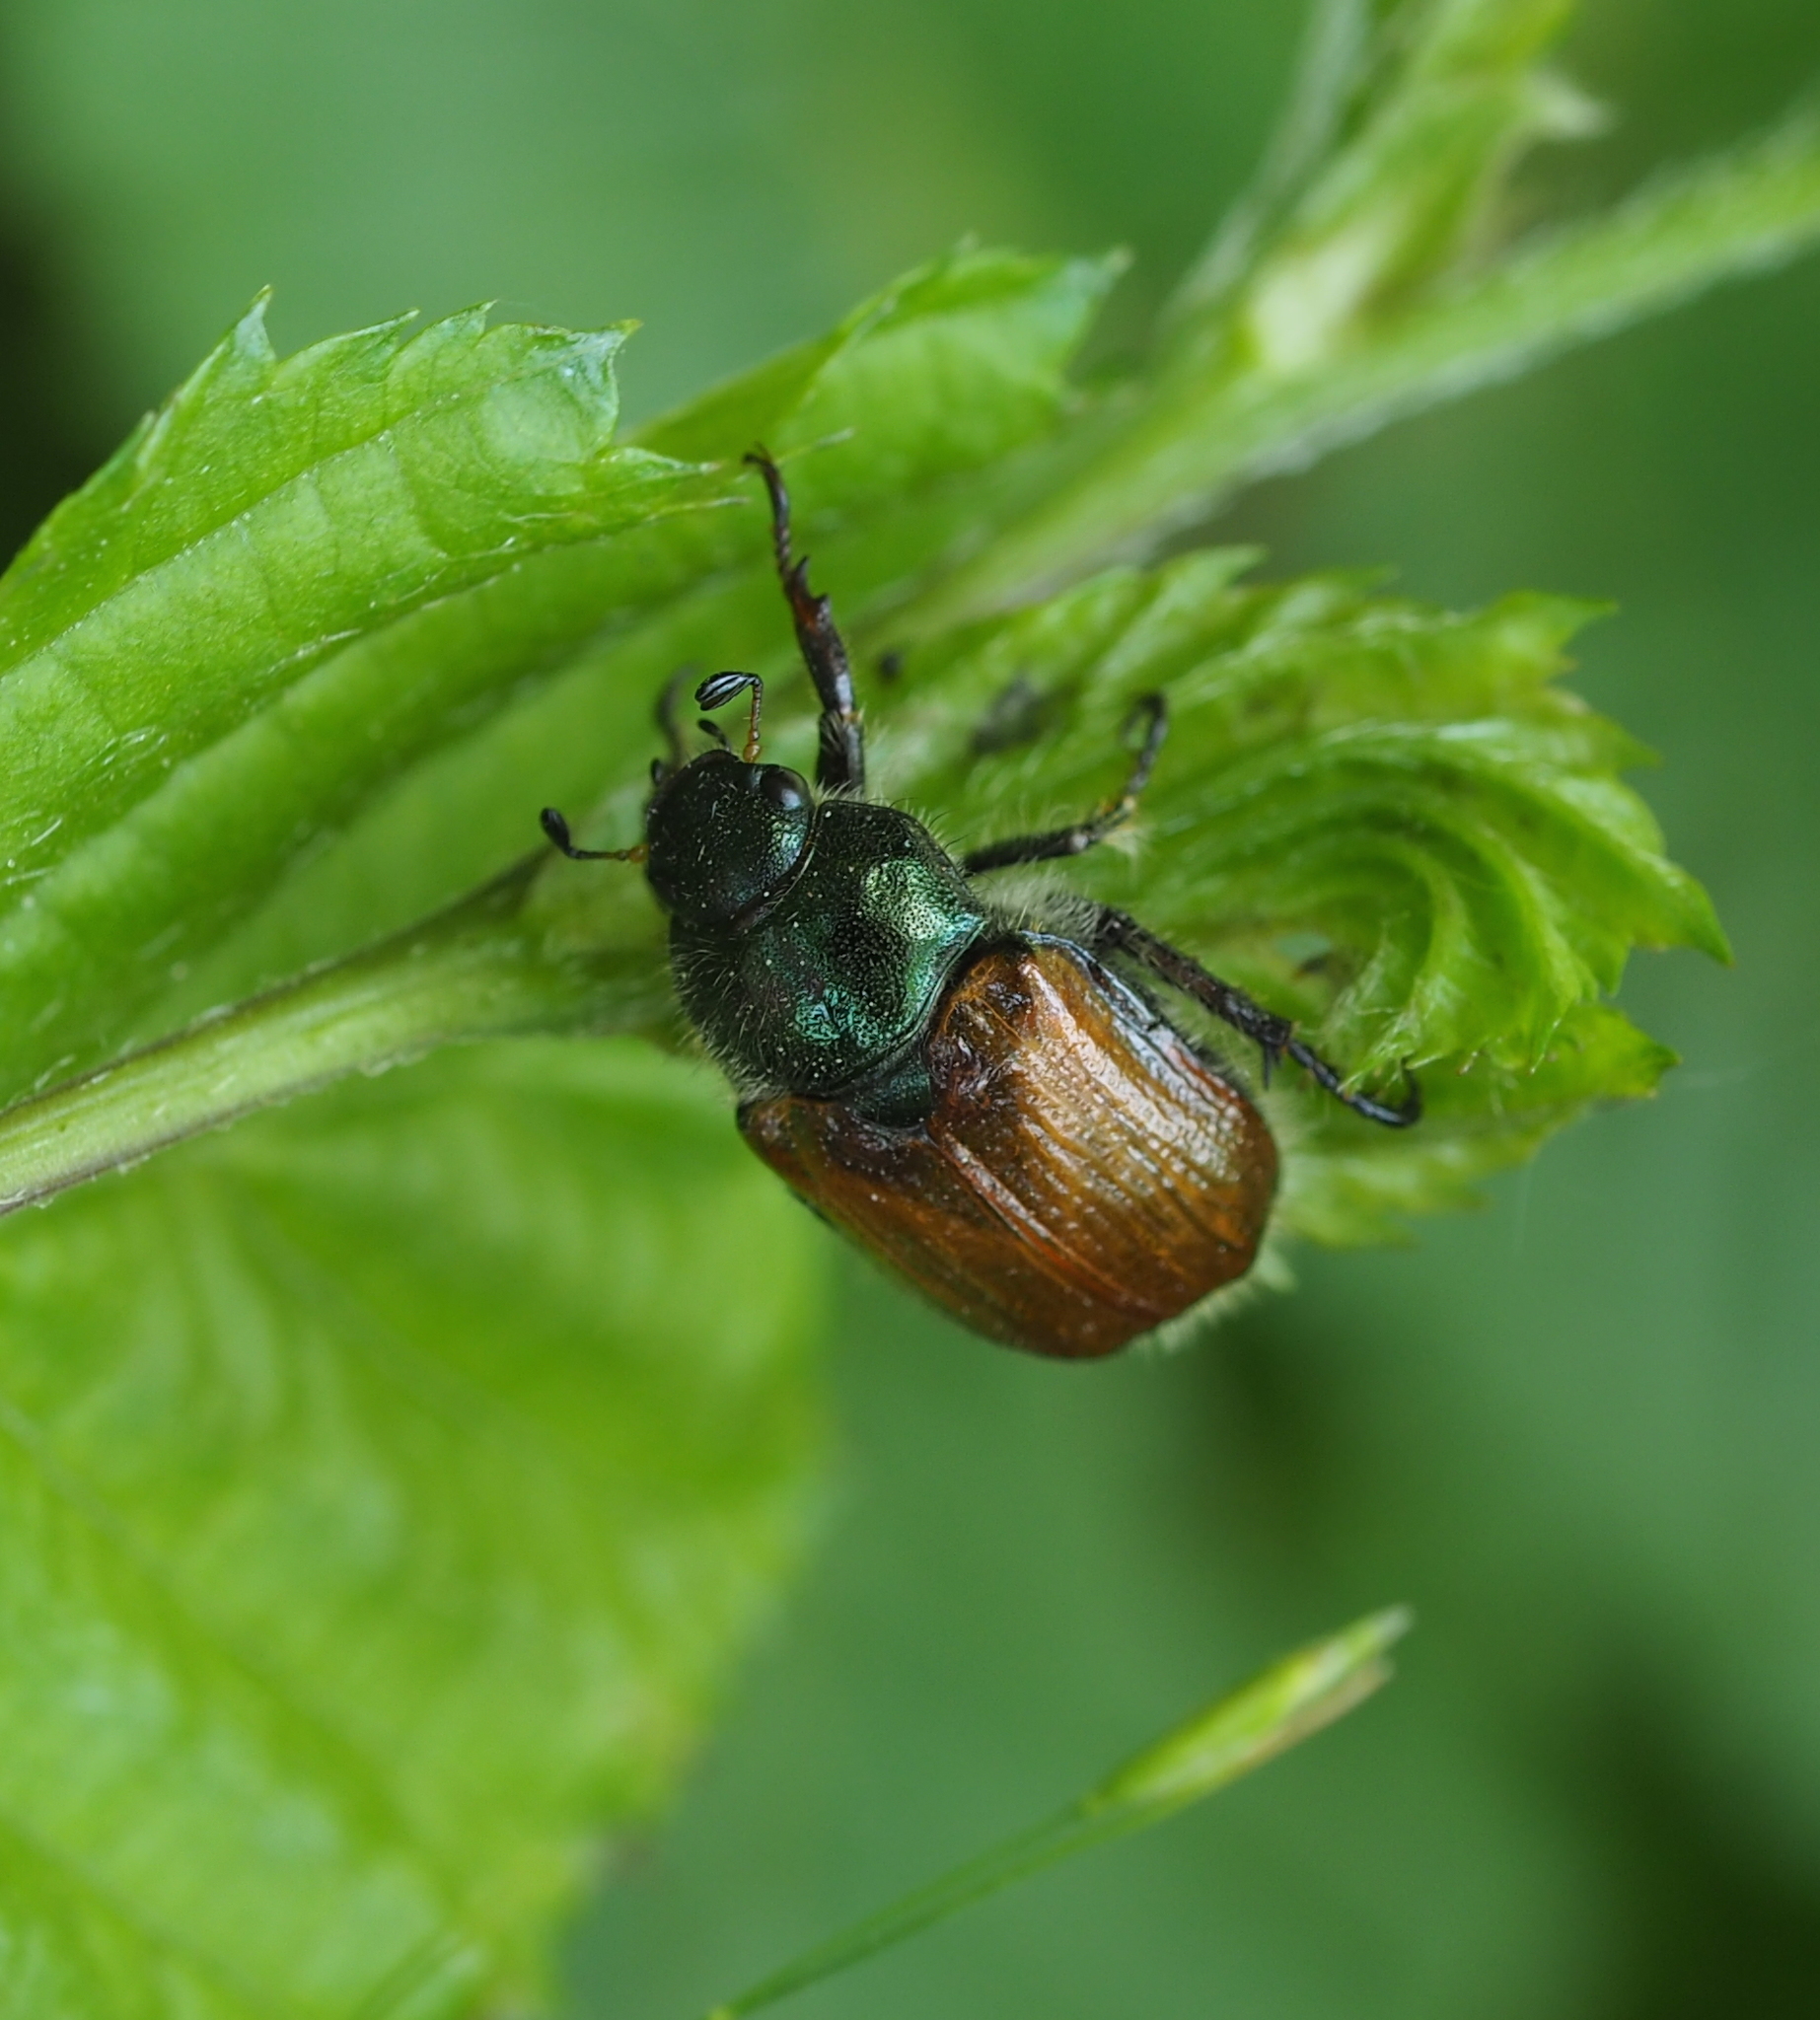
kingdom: Animalia
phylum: Arthropoda
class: Insecta
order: Coleoptera
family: Scarabaeidae
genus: Phyllopertha
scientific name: Phyllopertha horticola
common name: Garden chafer
